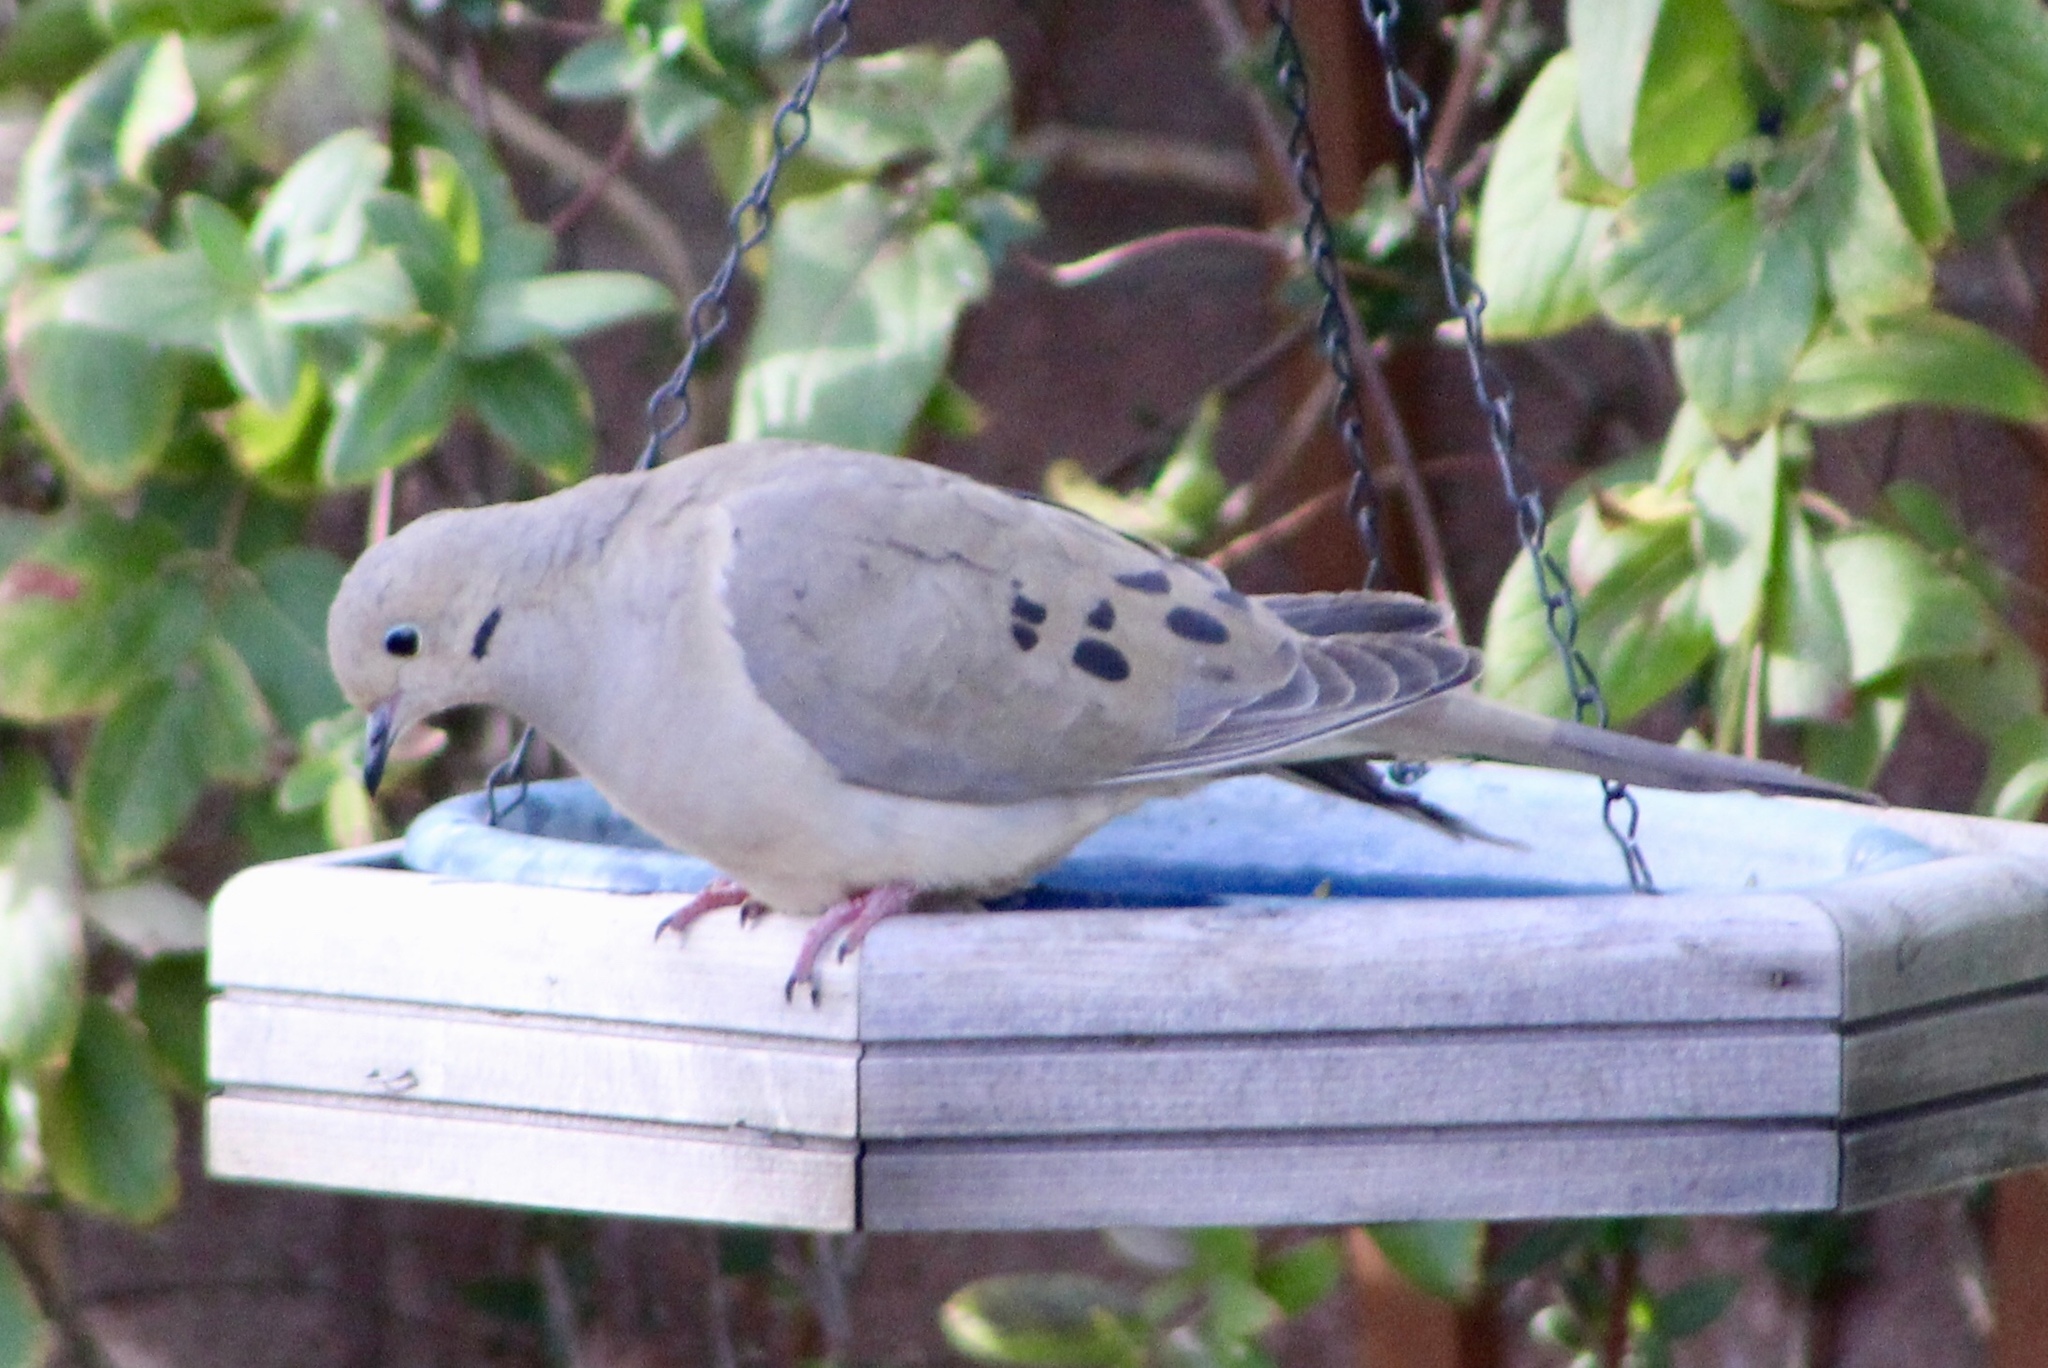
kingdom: Animalia
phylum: Chordata
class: Aves
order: Columbiformes
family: Columbidae
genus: Zenaida
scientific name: Zenaida macroura
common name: Mourning dove
